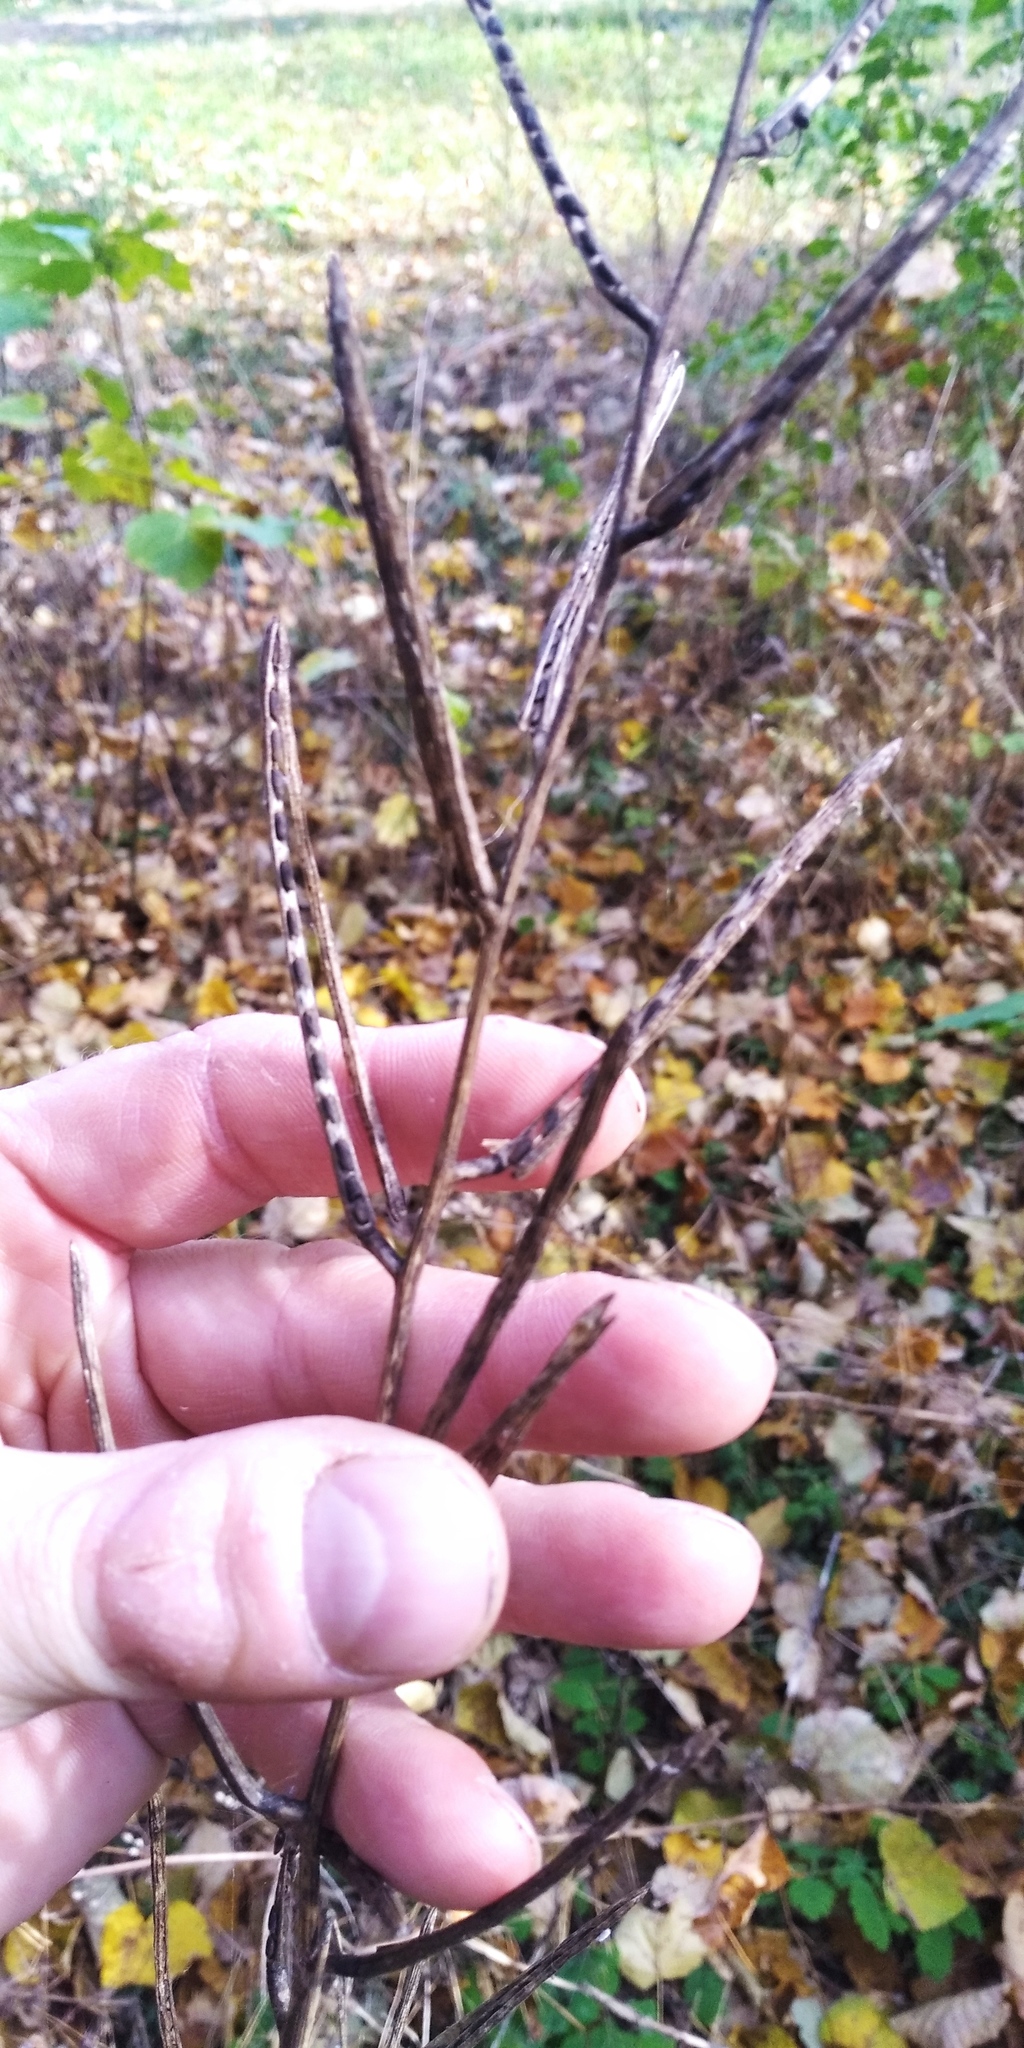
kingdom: Plantae
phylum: Tracheophyta
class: Magnoliopsida
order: Brassicales
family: Brassicaceae
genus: Alliaria
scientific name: Alliaria petiolata
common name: Garlic mustard
